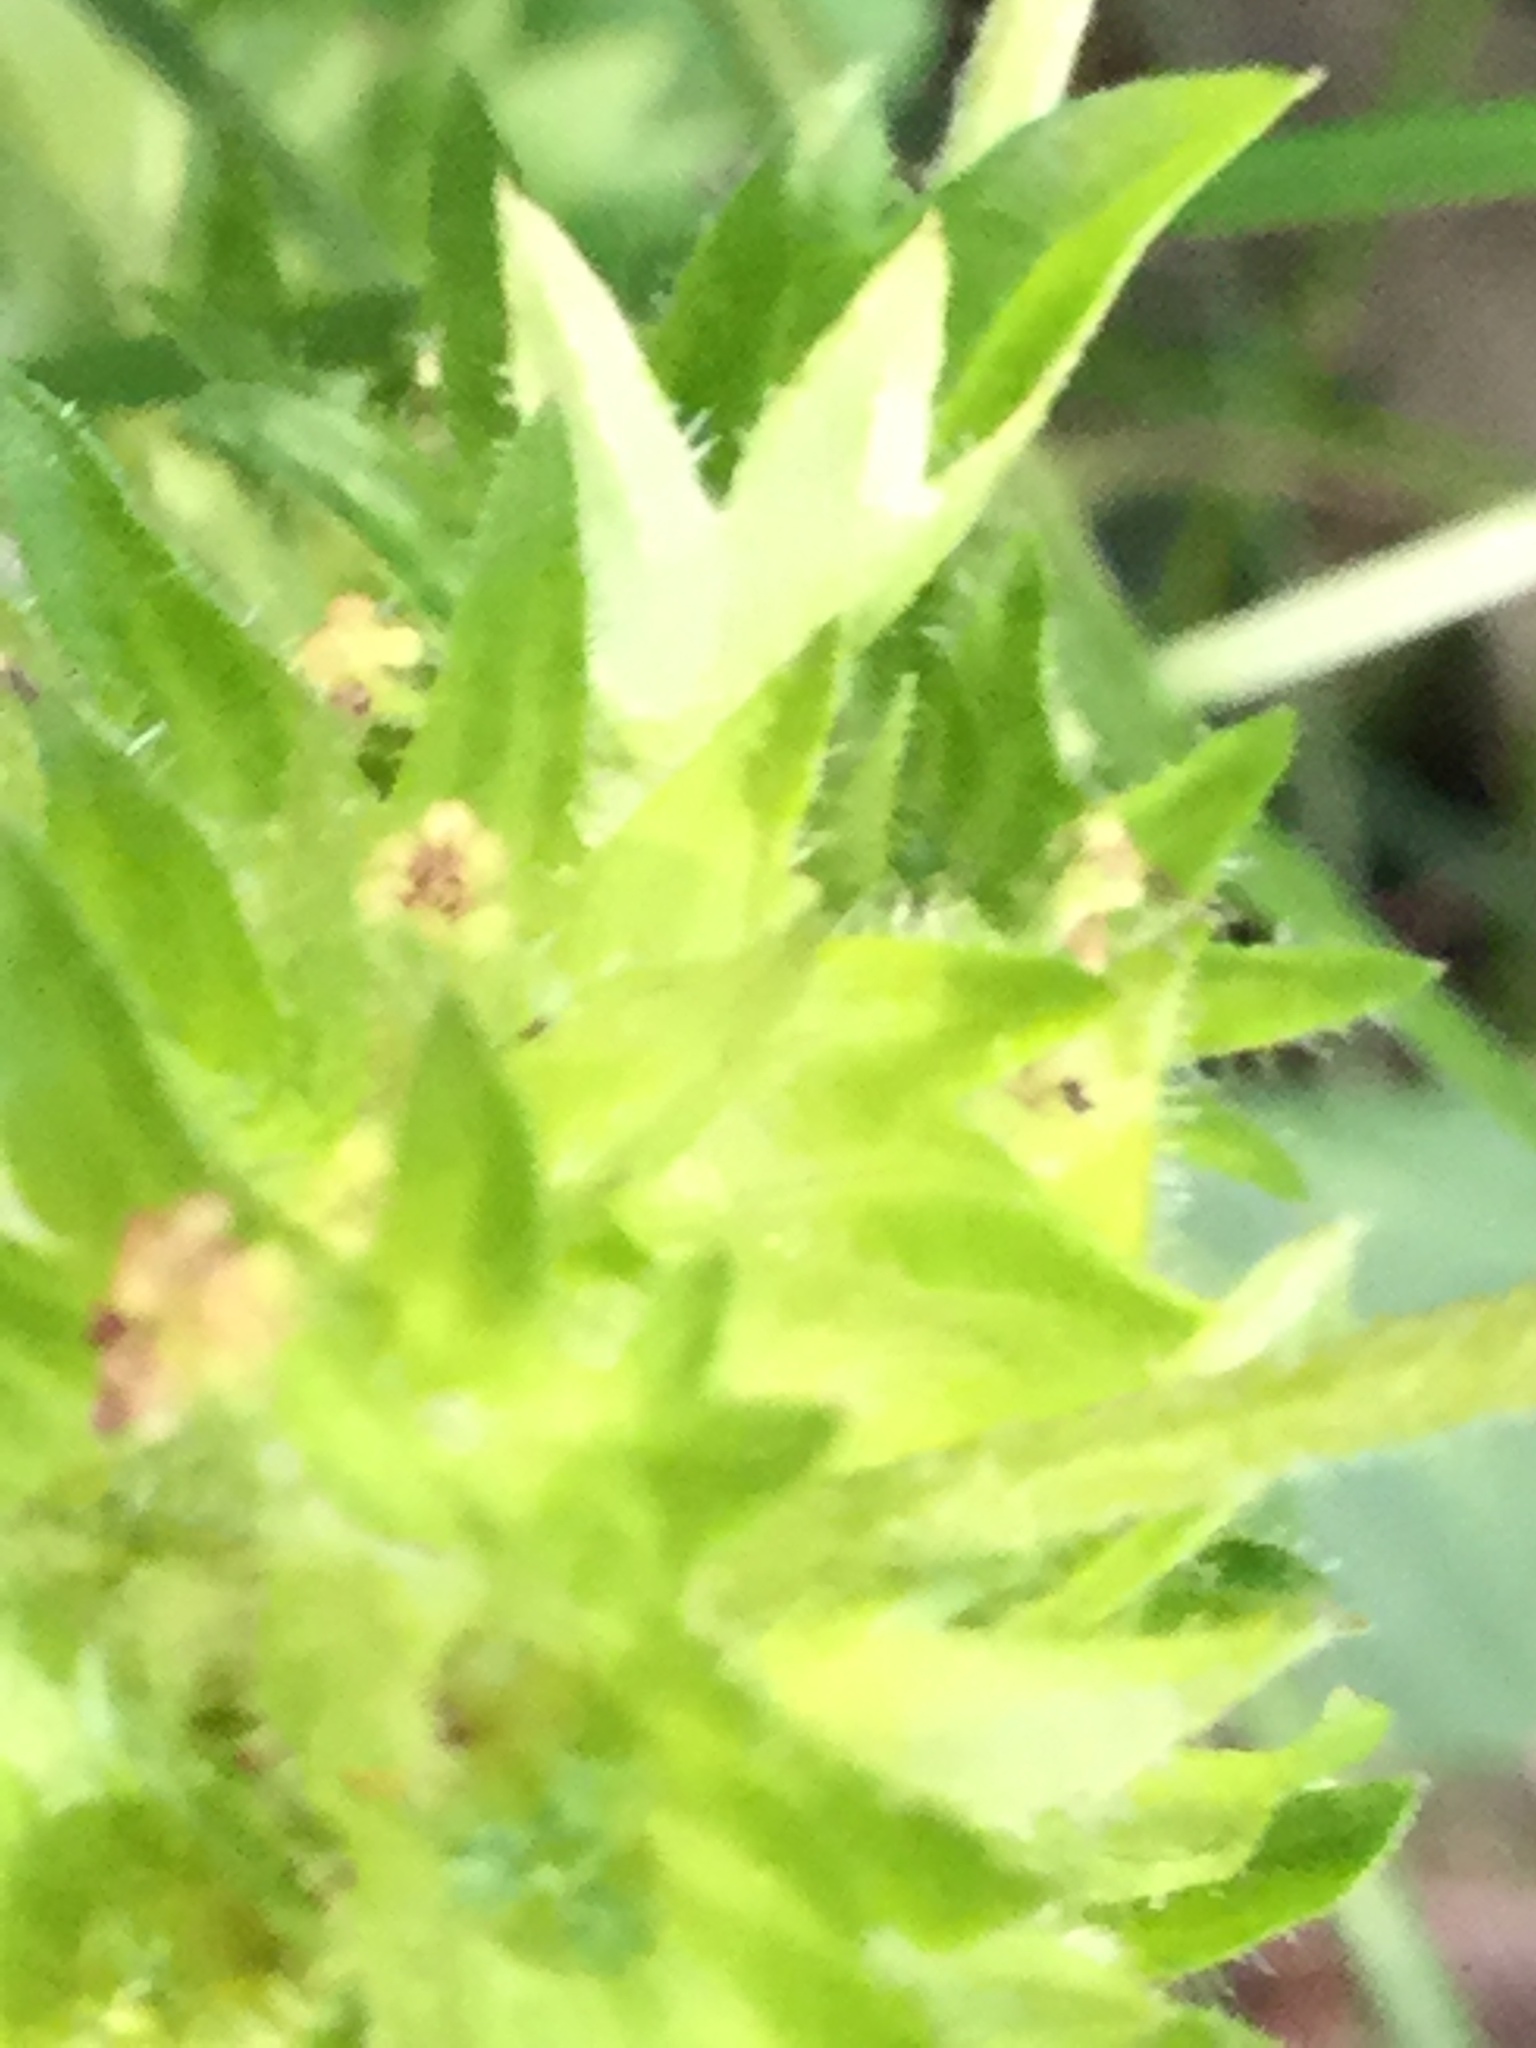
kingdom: Plantae
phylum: Tracheophyta
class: Magnoliopsida
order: Malpighiales
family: Euphorbiaceae
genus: Acalypha
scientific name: Acalypha rhomboidea
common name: Rhombic copperleaf
